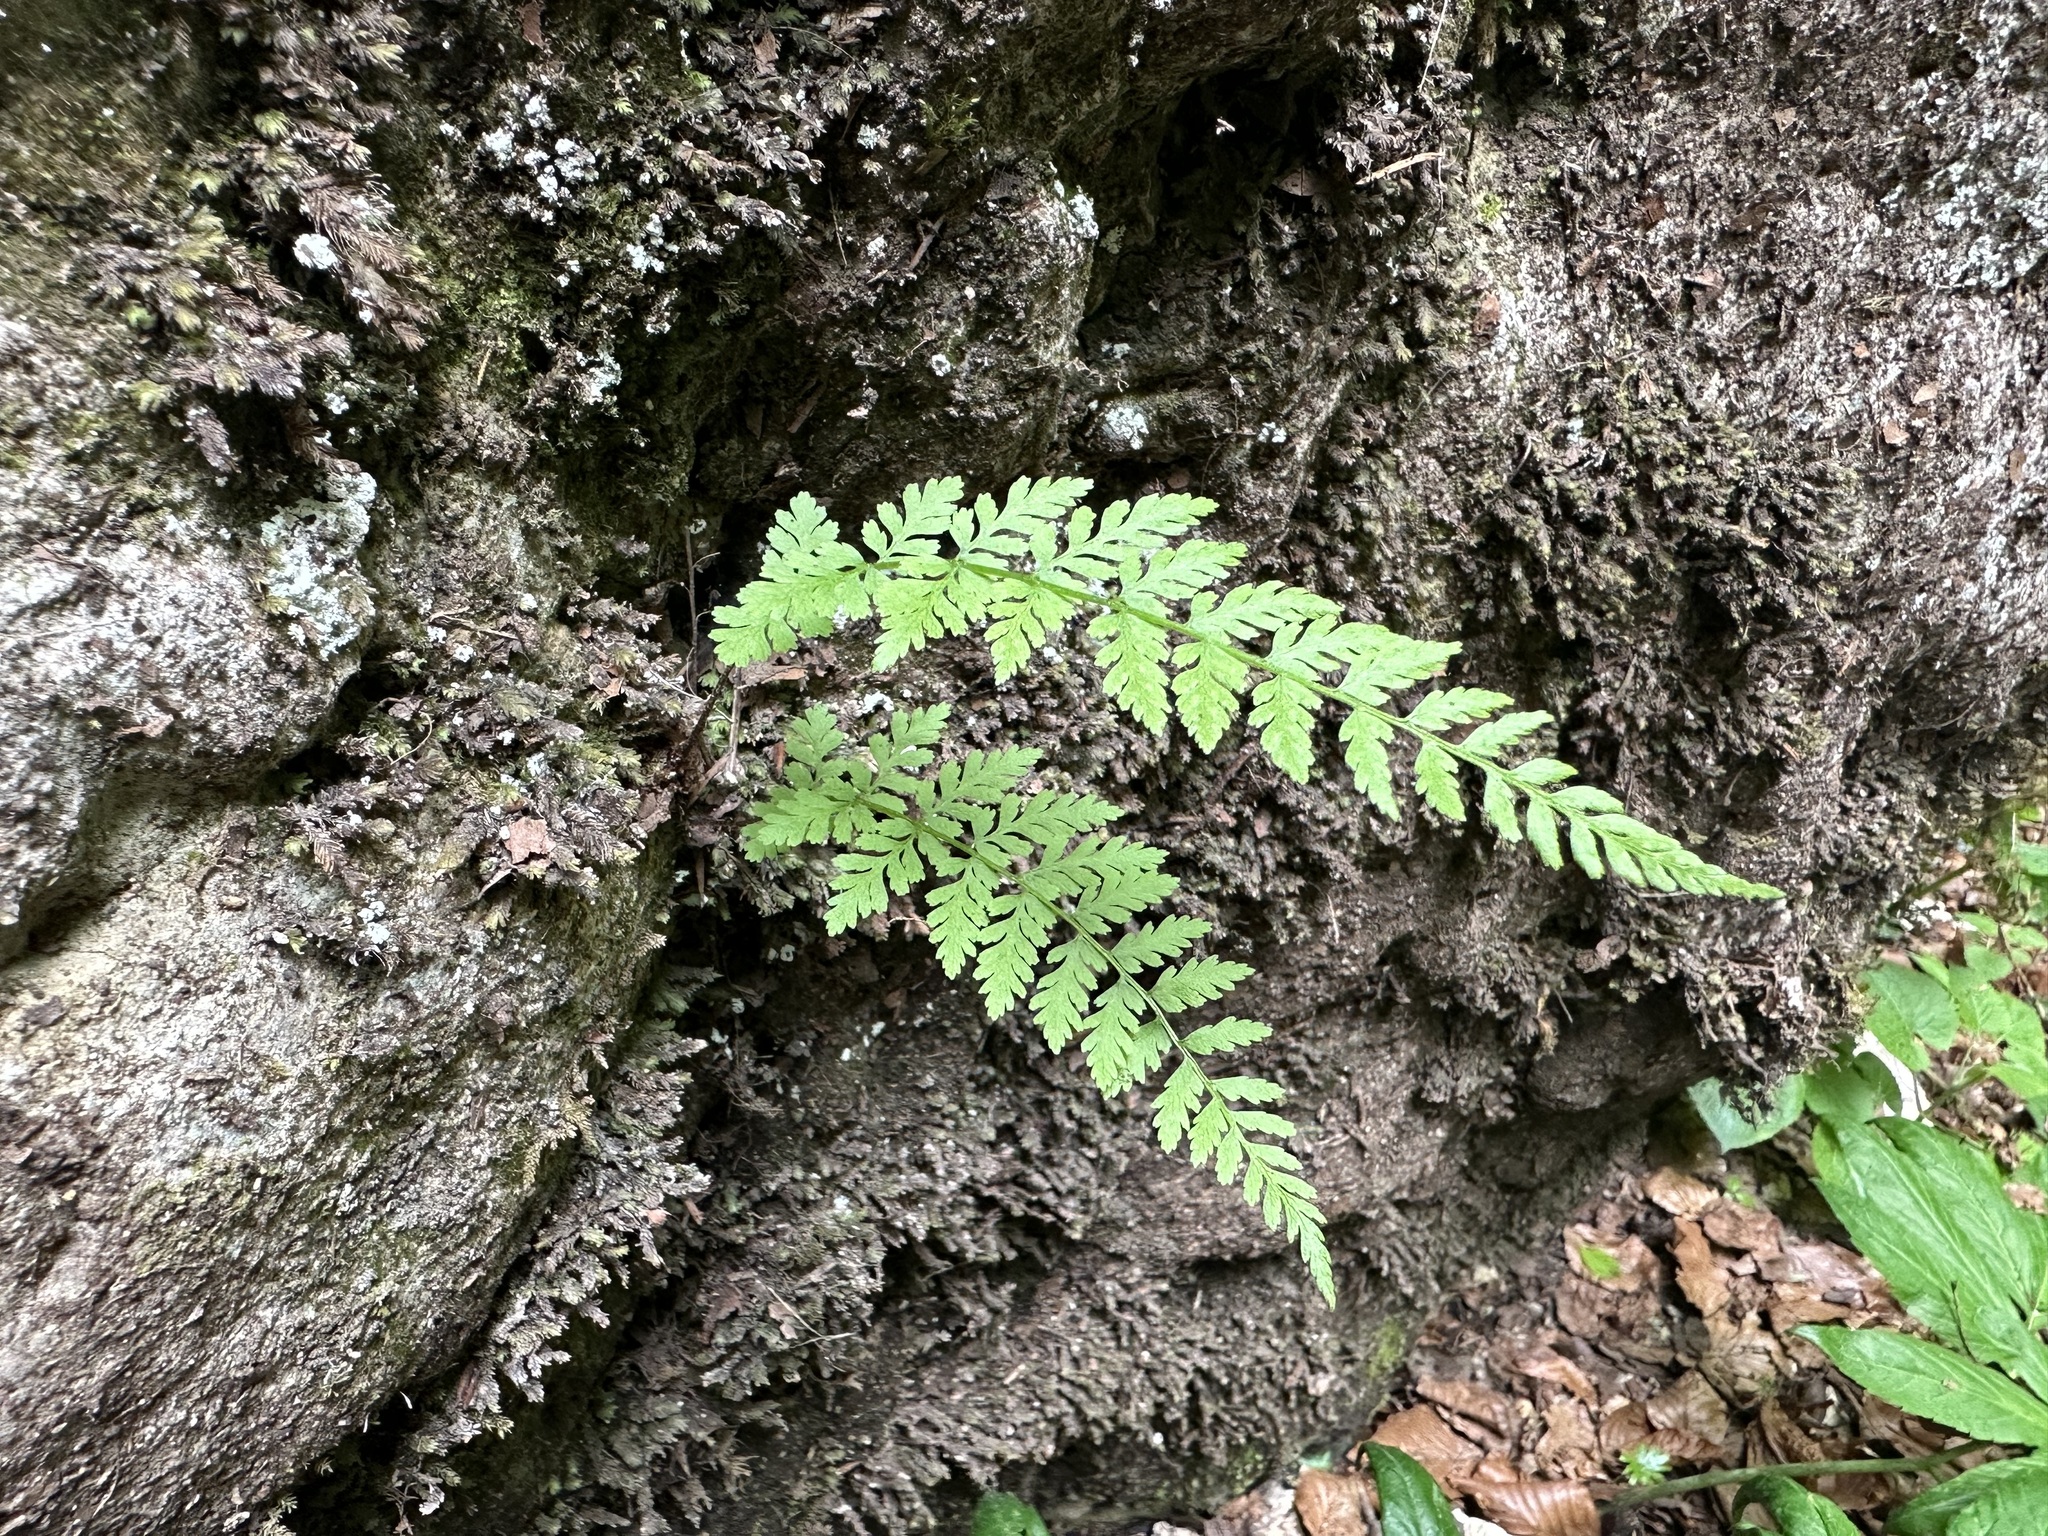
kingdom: Plantae
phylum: Tracheophyta
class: Polypodiopsida
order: Polypodiales
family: Cystopteridaceae
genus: Cystopteris
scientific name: Cystopteris fragilis
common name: Brittle bladder fern
